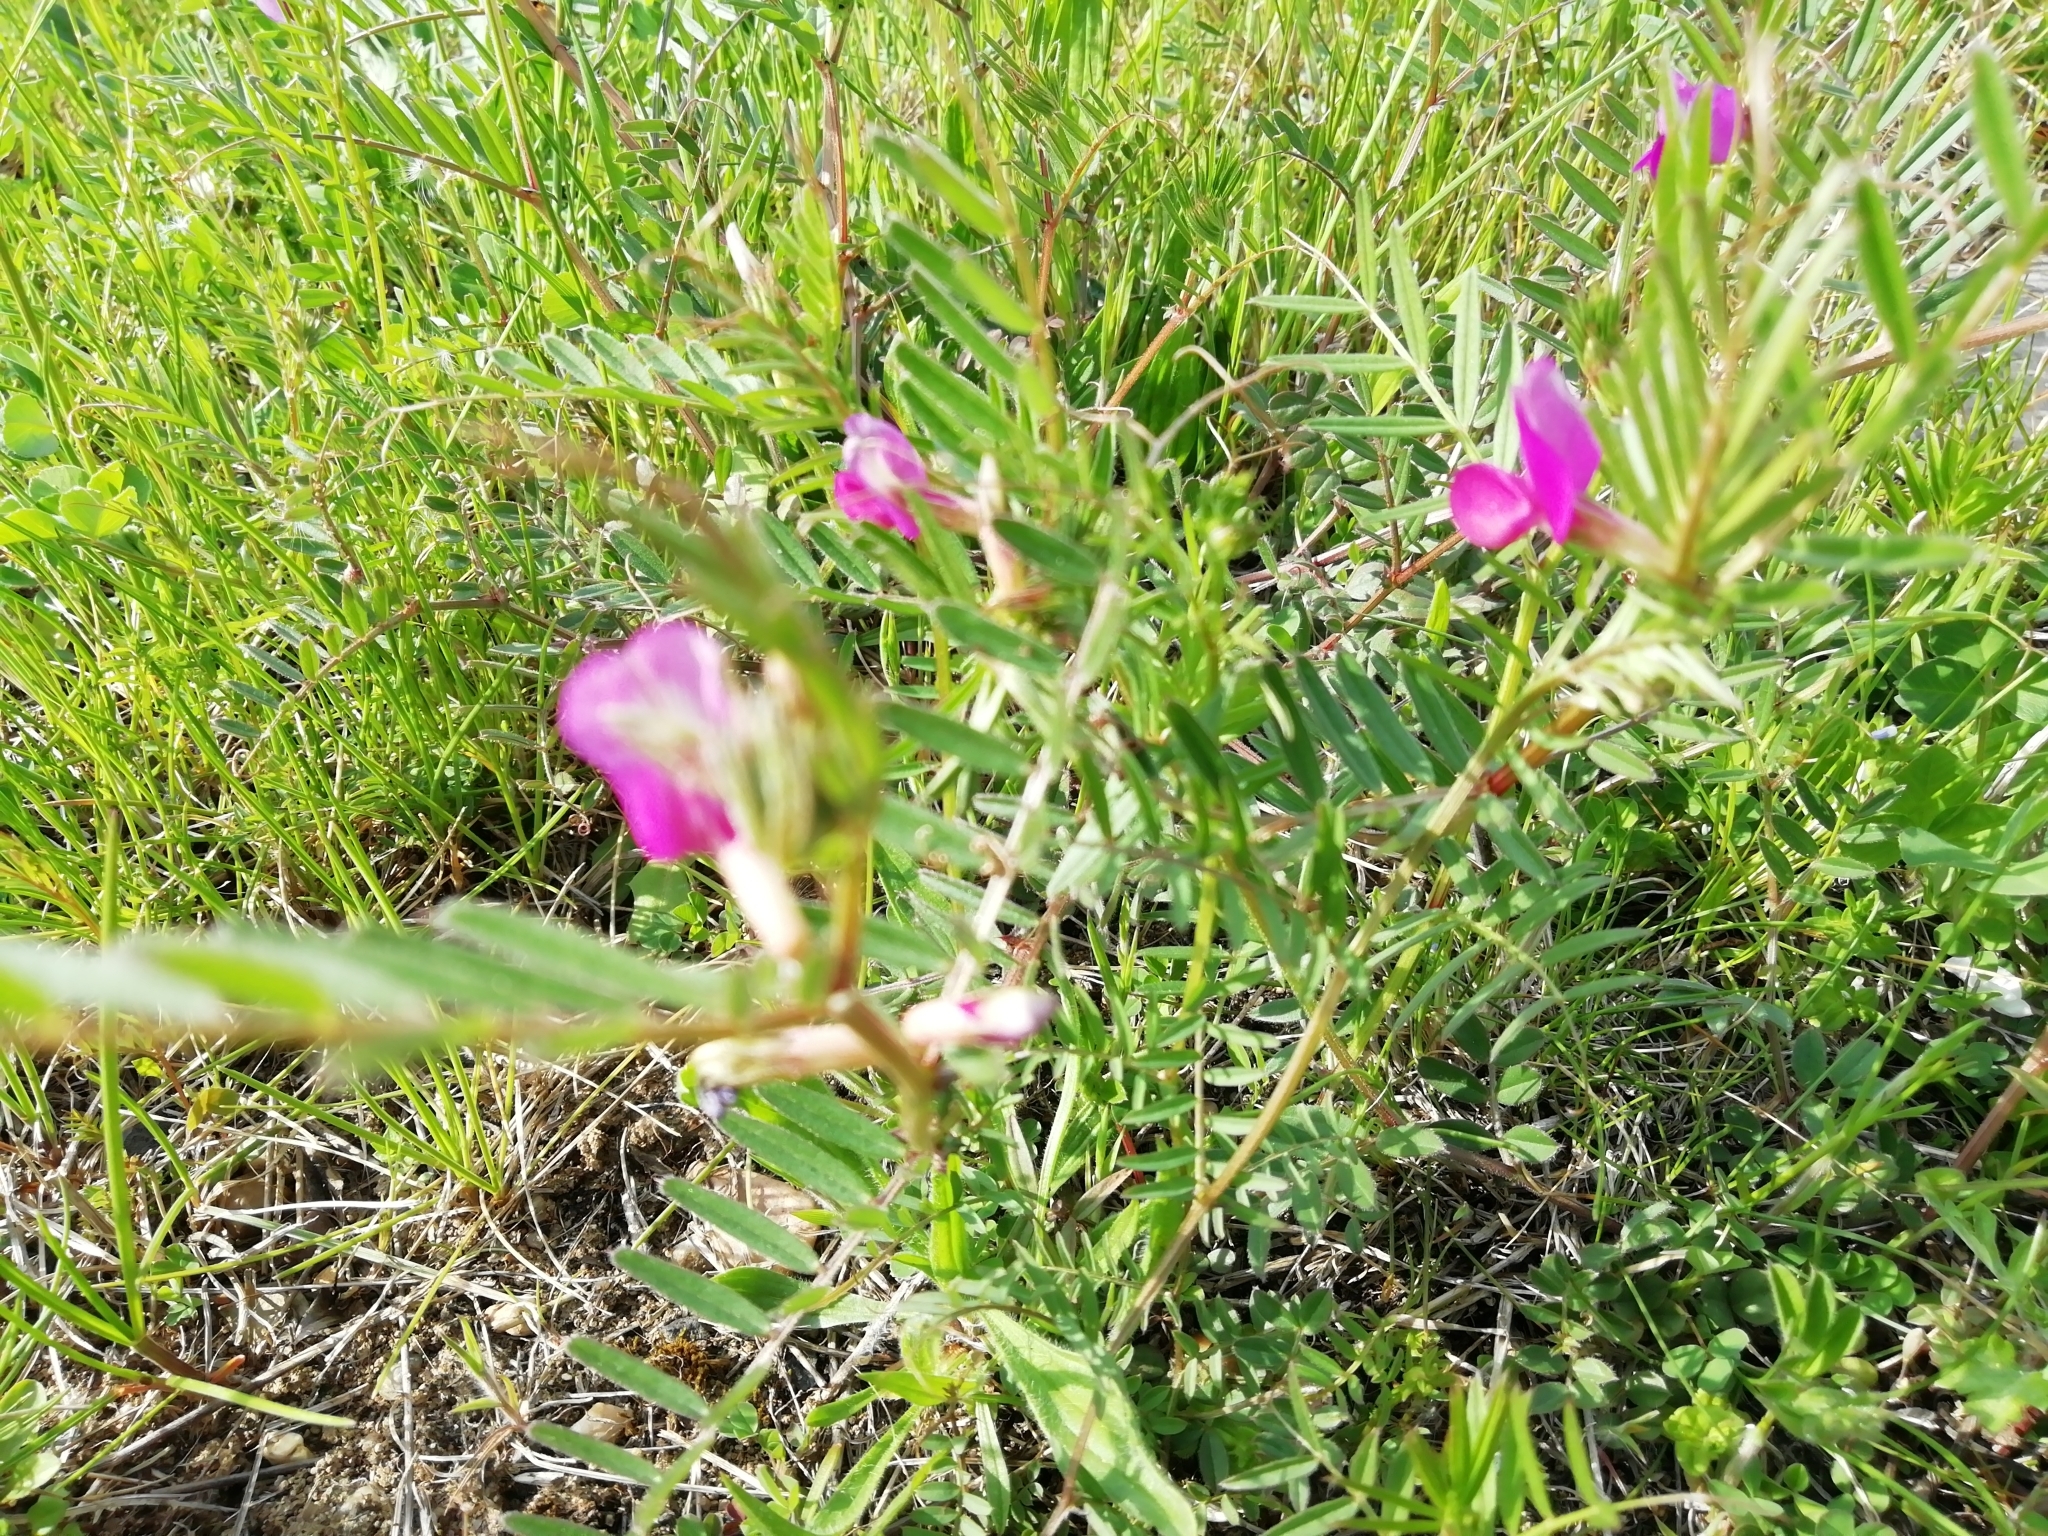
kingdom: Plantae
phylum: Tracheophyta
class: Magnoliopsida
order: Fabales
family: Fabaceae
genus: Vicia
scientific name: Vicia sativa
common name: Garden vetch
